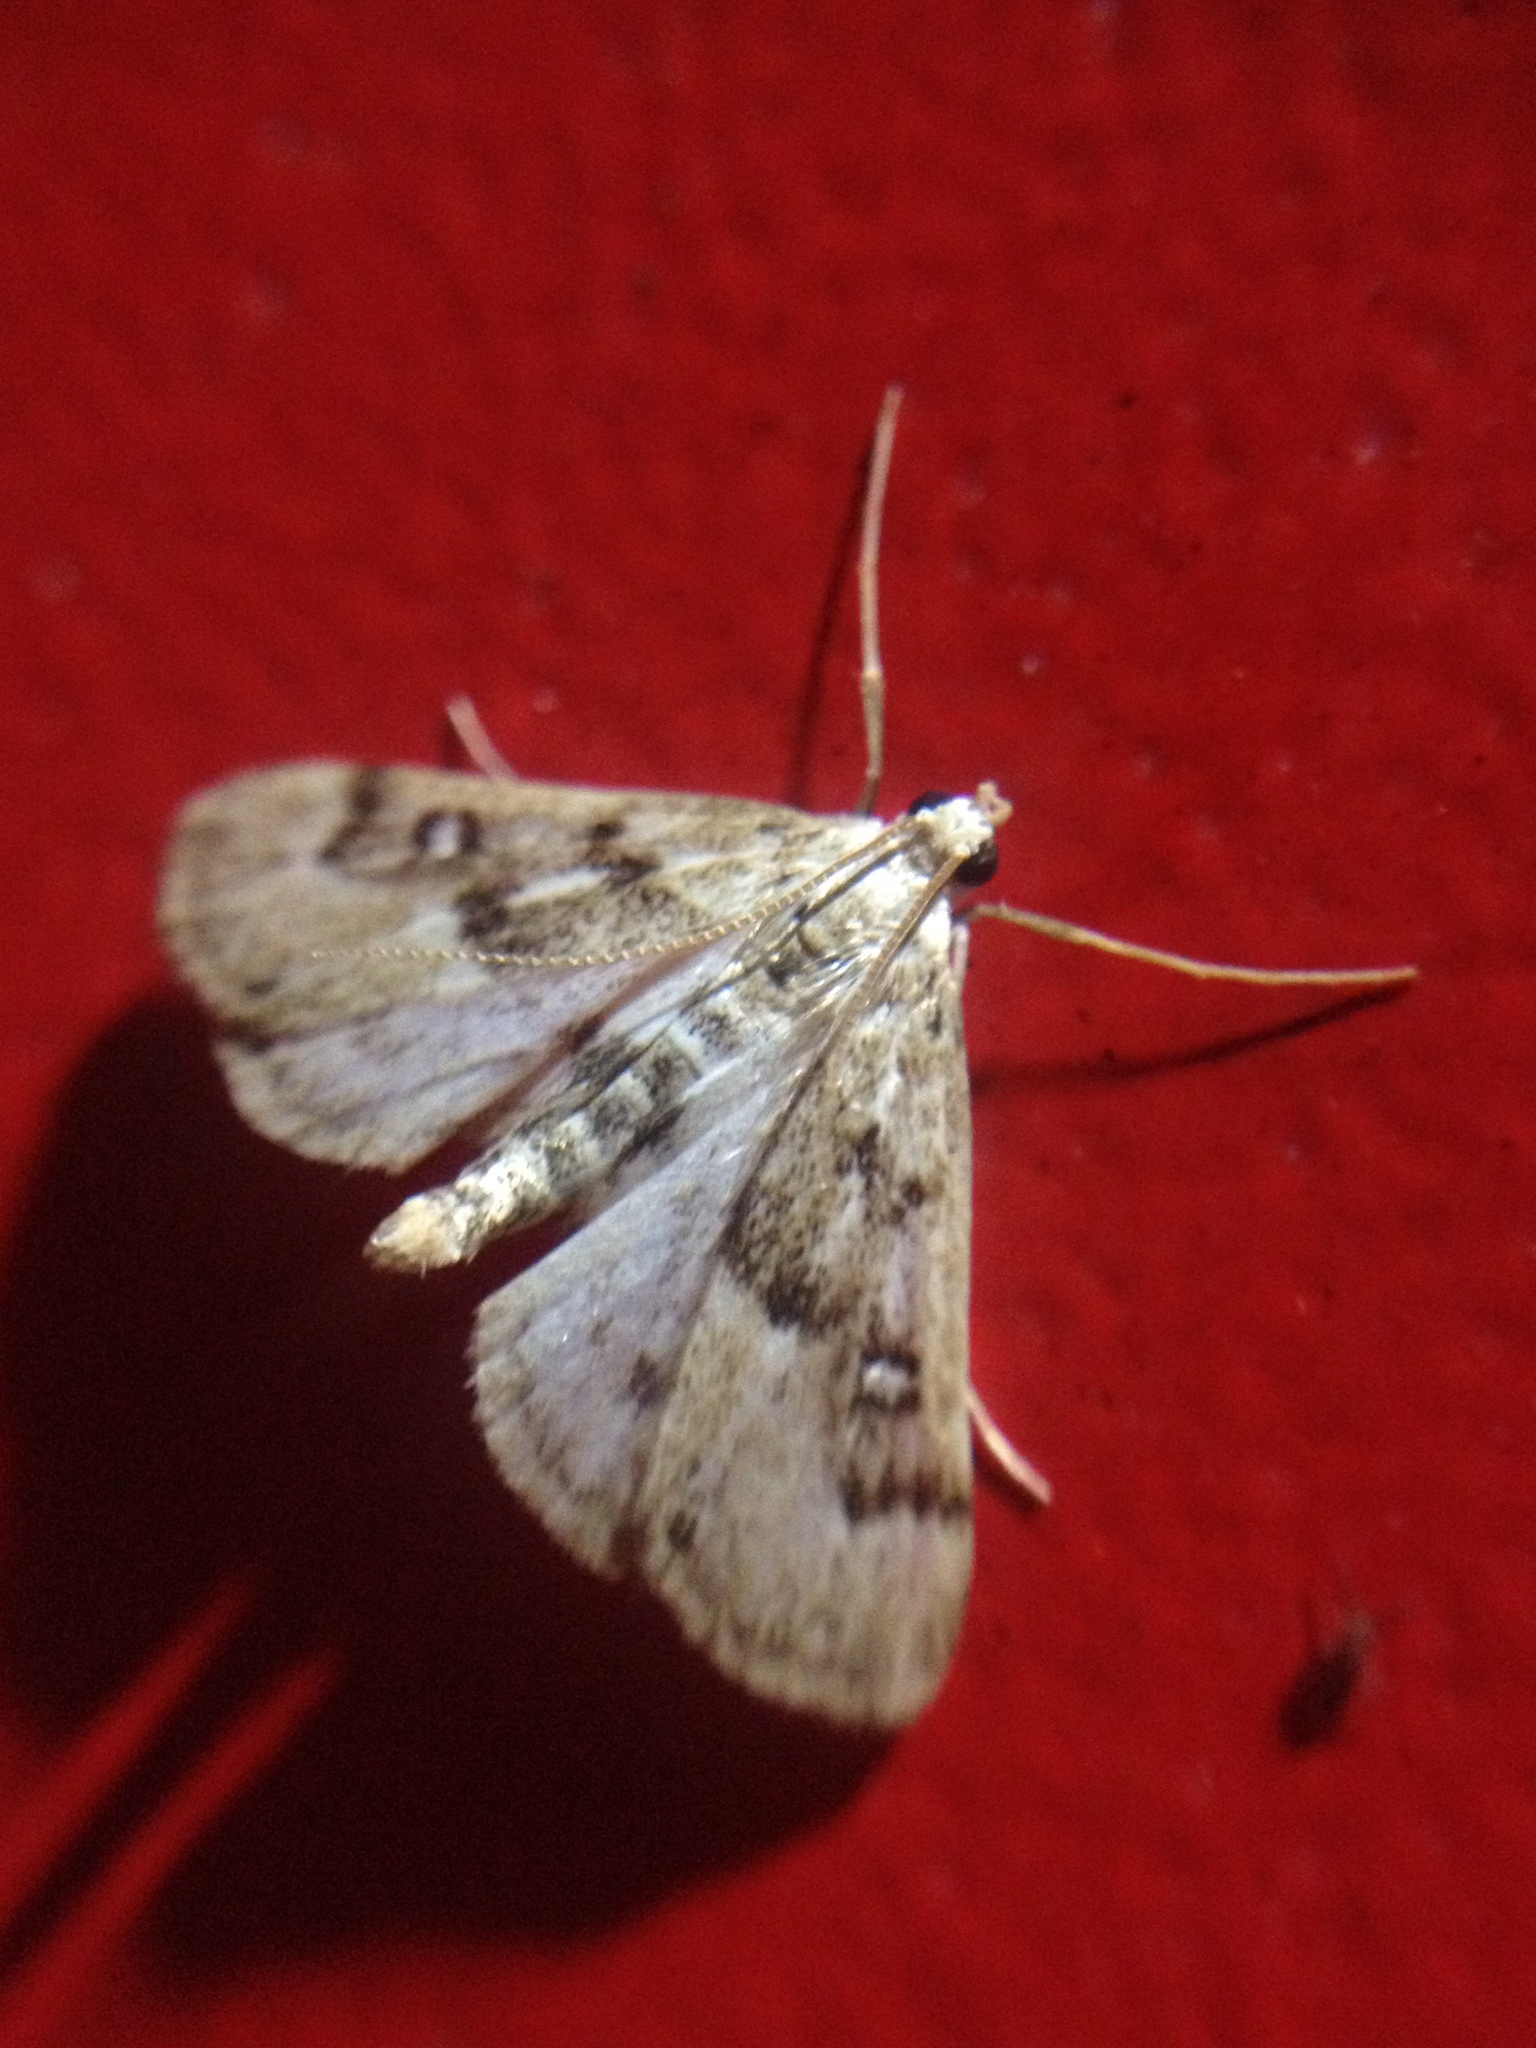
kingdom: Animalia
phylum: Arthropoda
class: Insecta
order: Lepidoptera
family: Crambidae
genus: Parapoynx
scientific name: Parapoynx stratiotata
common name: Ringed china-mark
